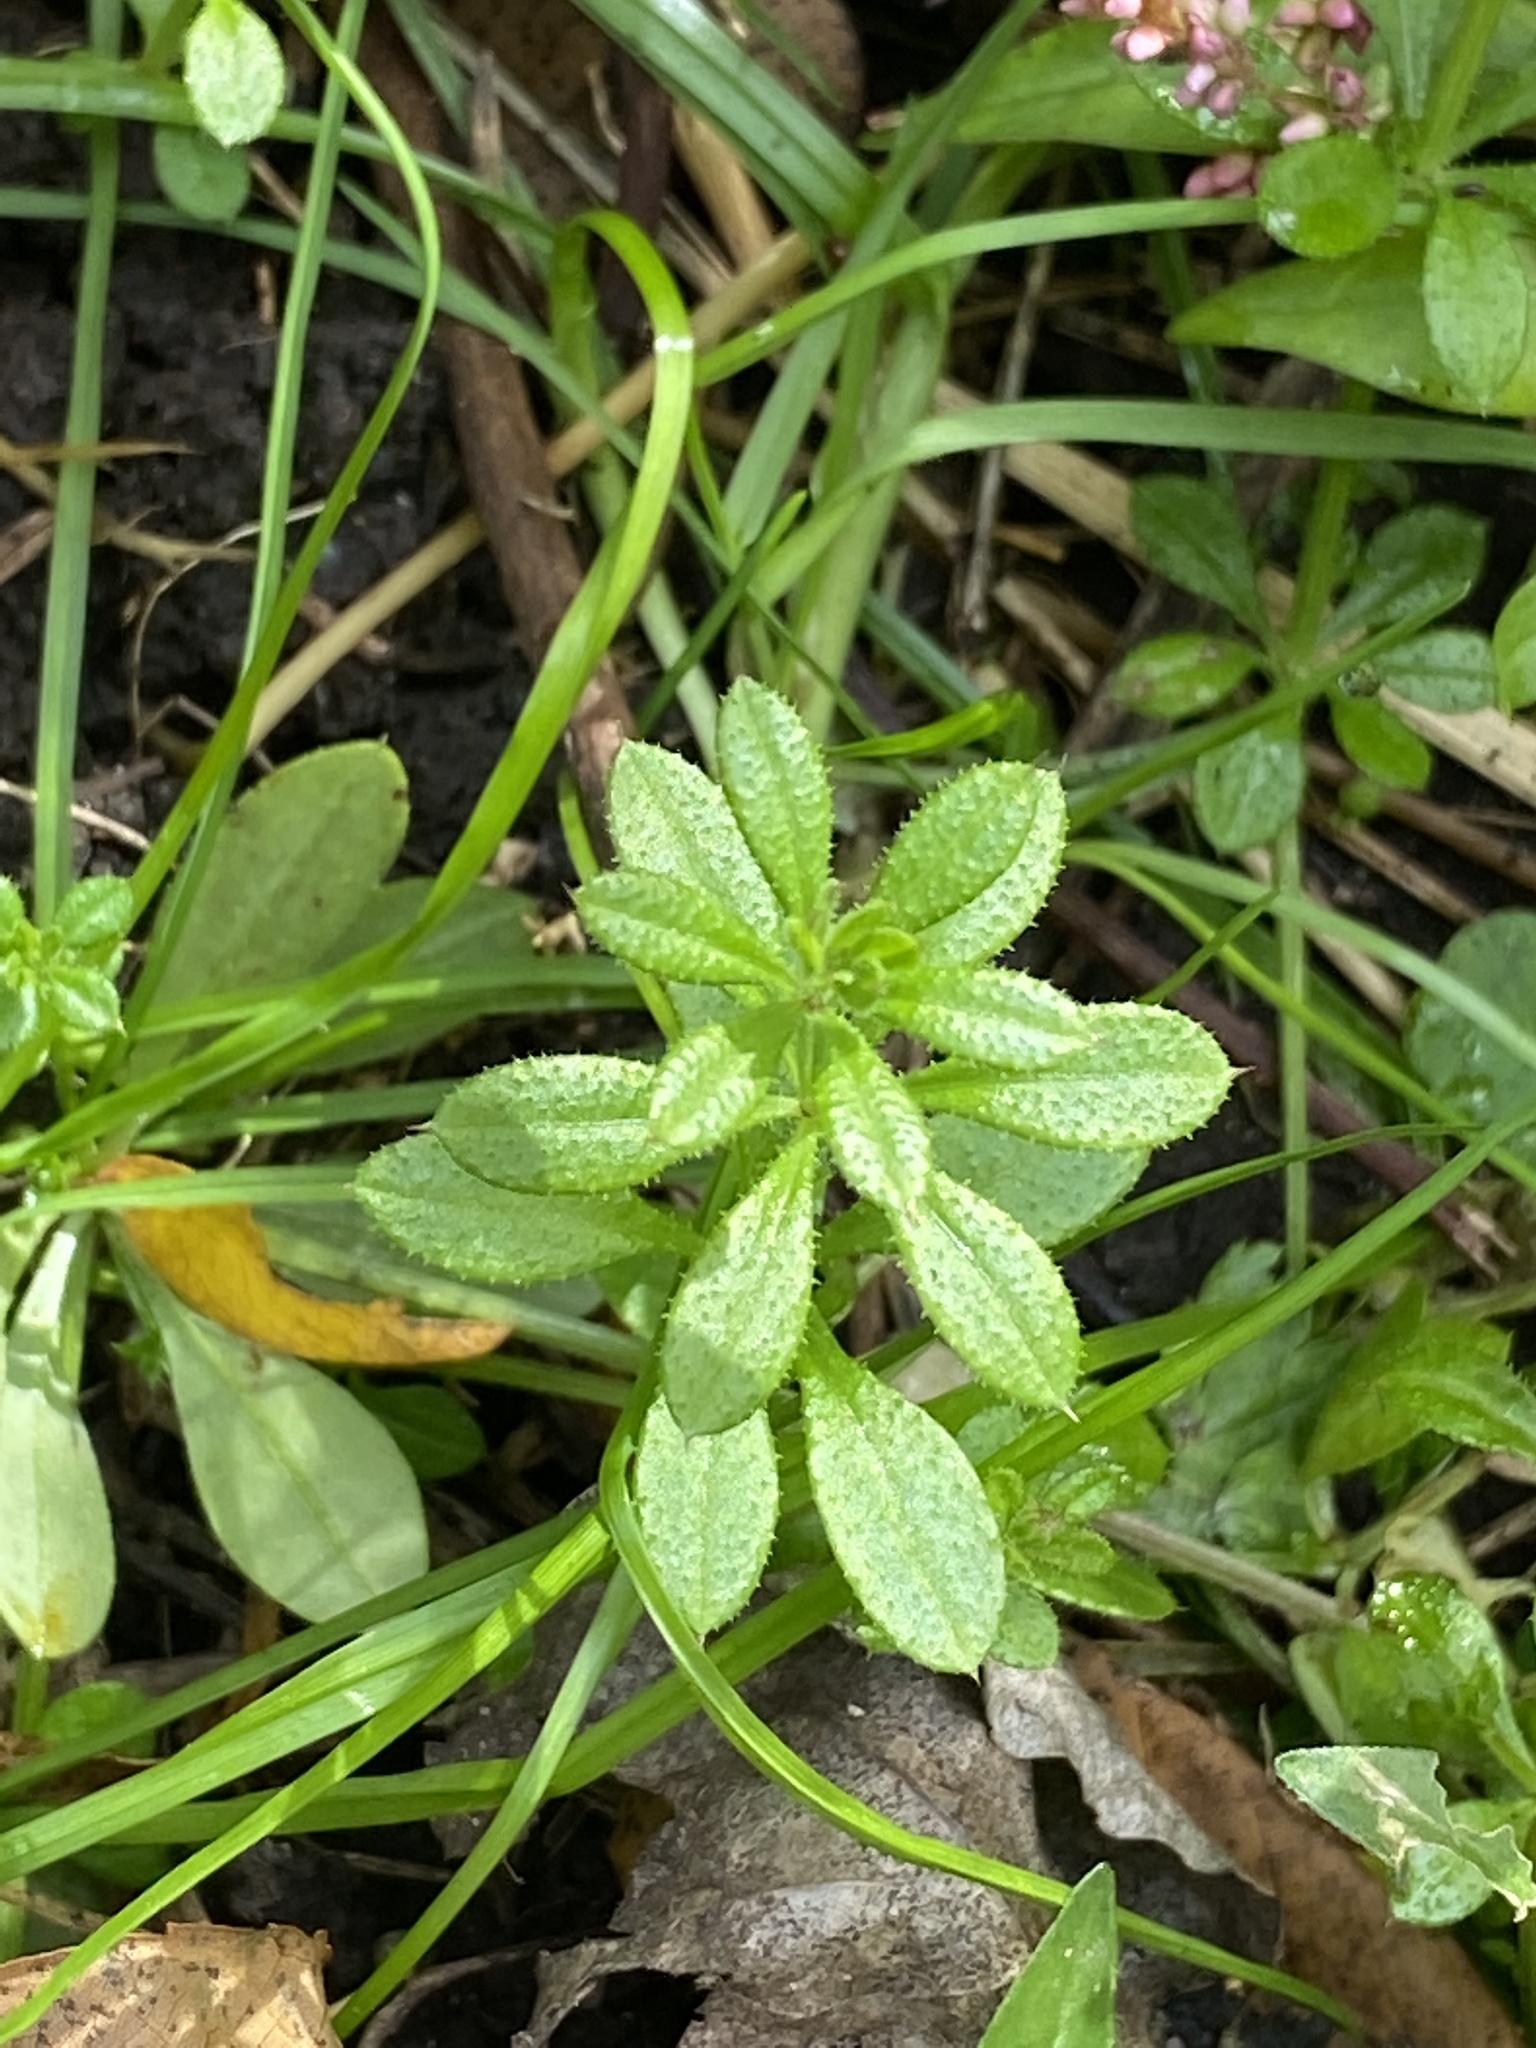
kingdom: Plantae
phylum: Tracheophyta
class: Magnoliopsida
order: Gentianales
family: Rubiaceae
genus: Galium
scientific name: Galium aparine
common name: Cleavers
